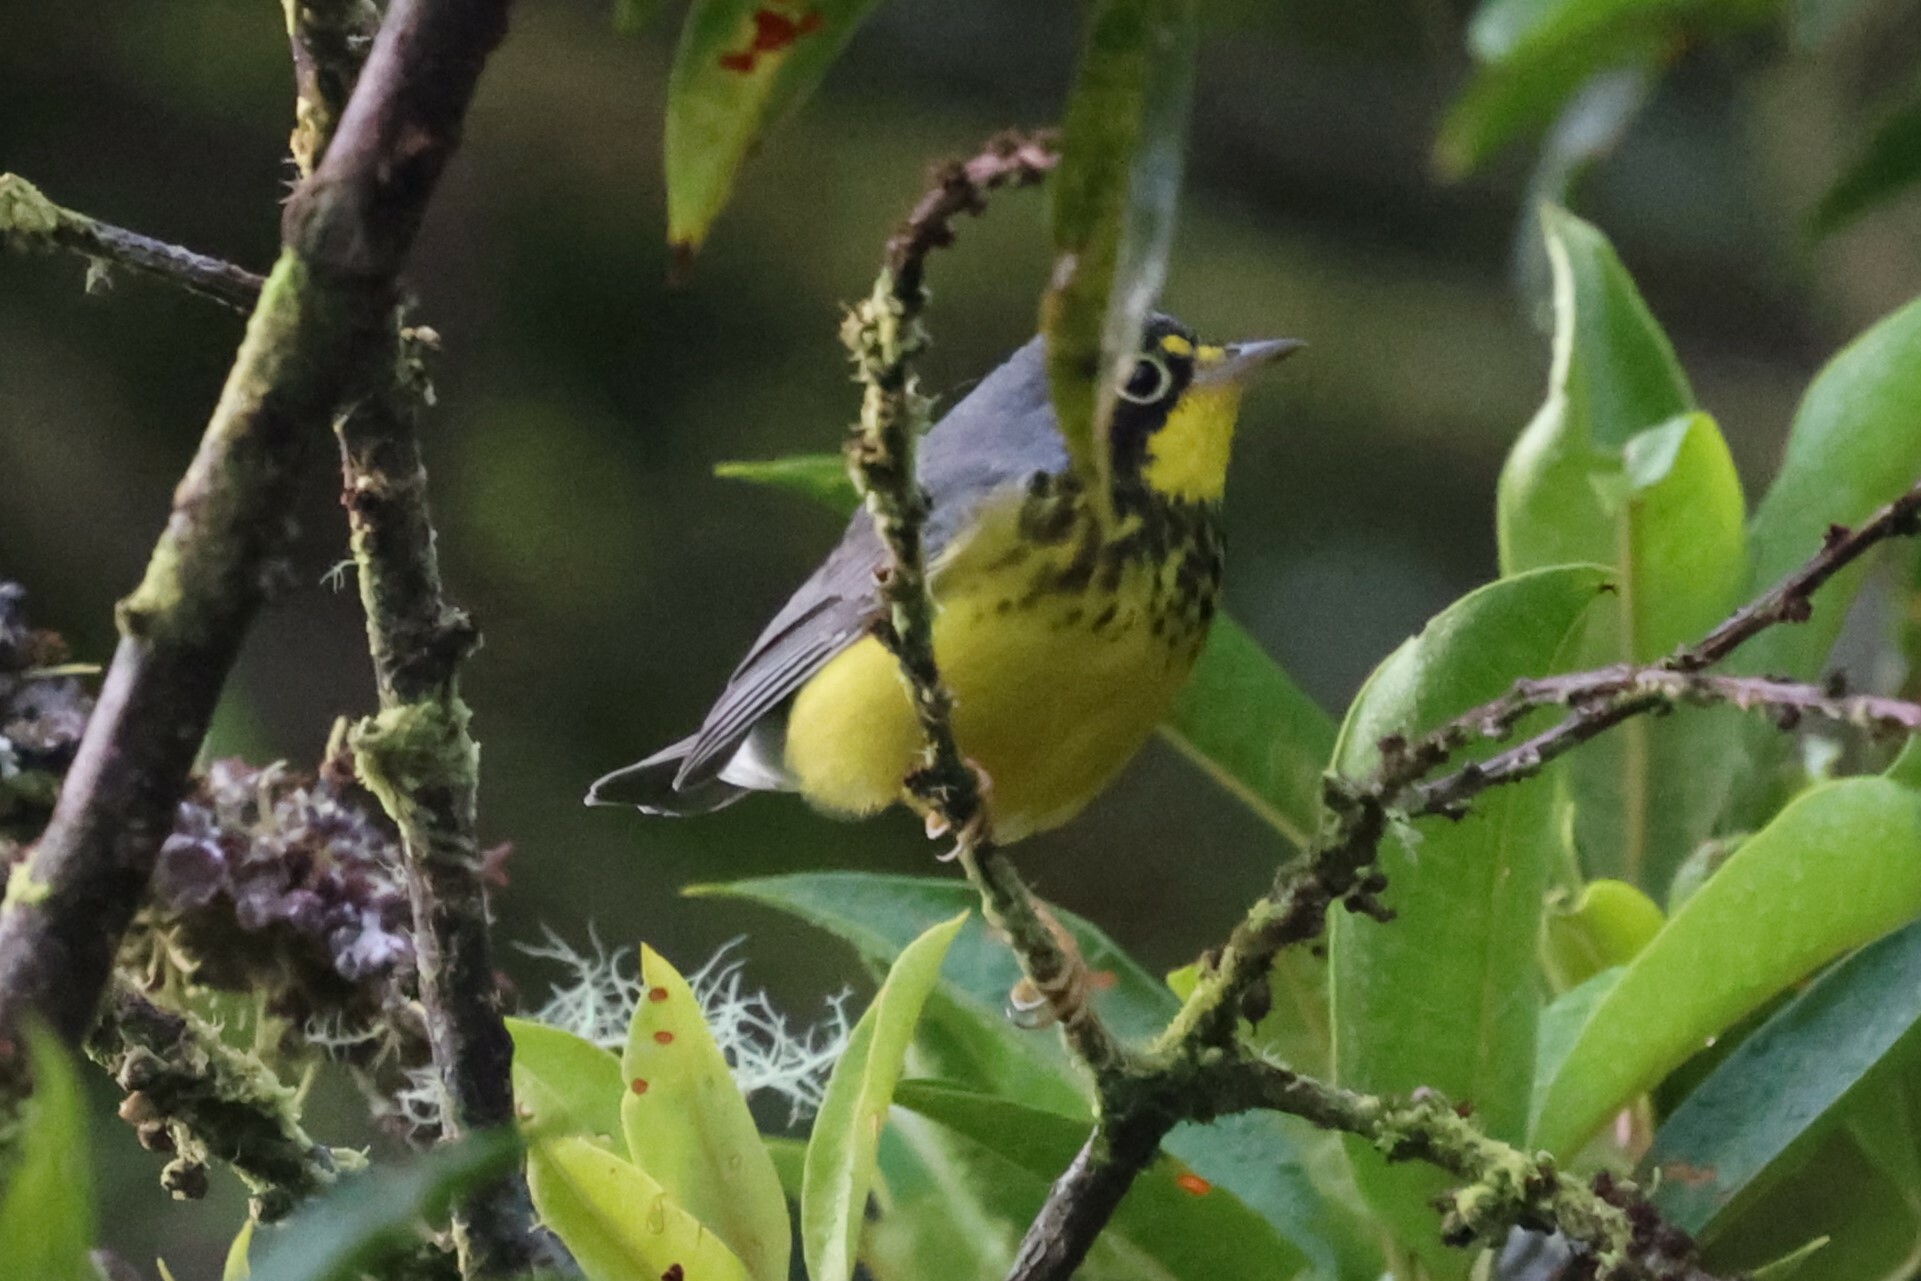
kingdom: Animalia
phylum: Chordata
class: Aves
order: Passeriformes
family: Parulidae
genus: Cardellina
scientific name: Cardellina canadensis
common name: Canada warbler
